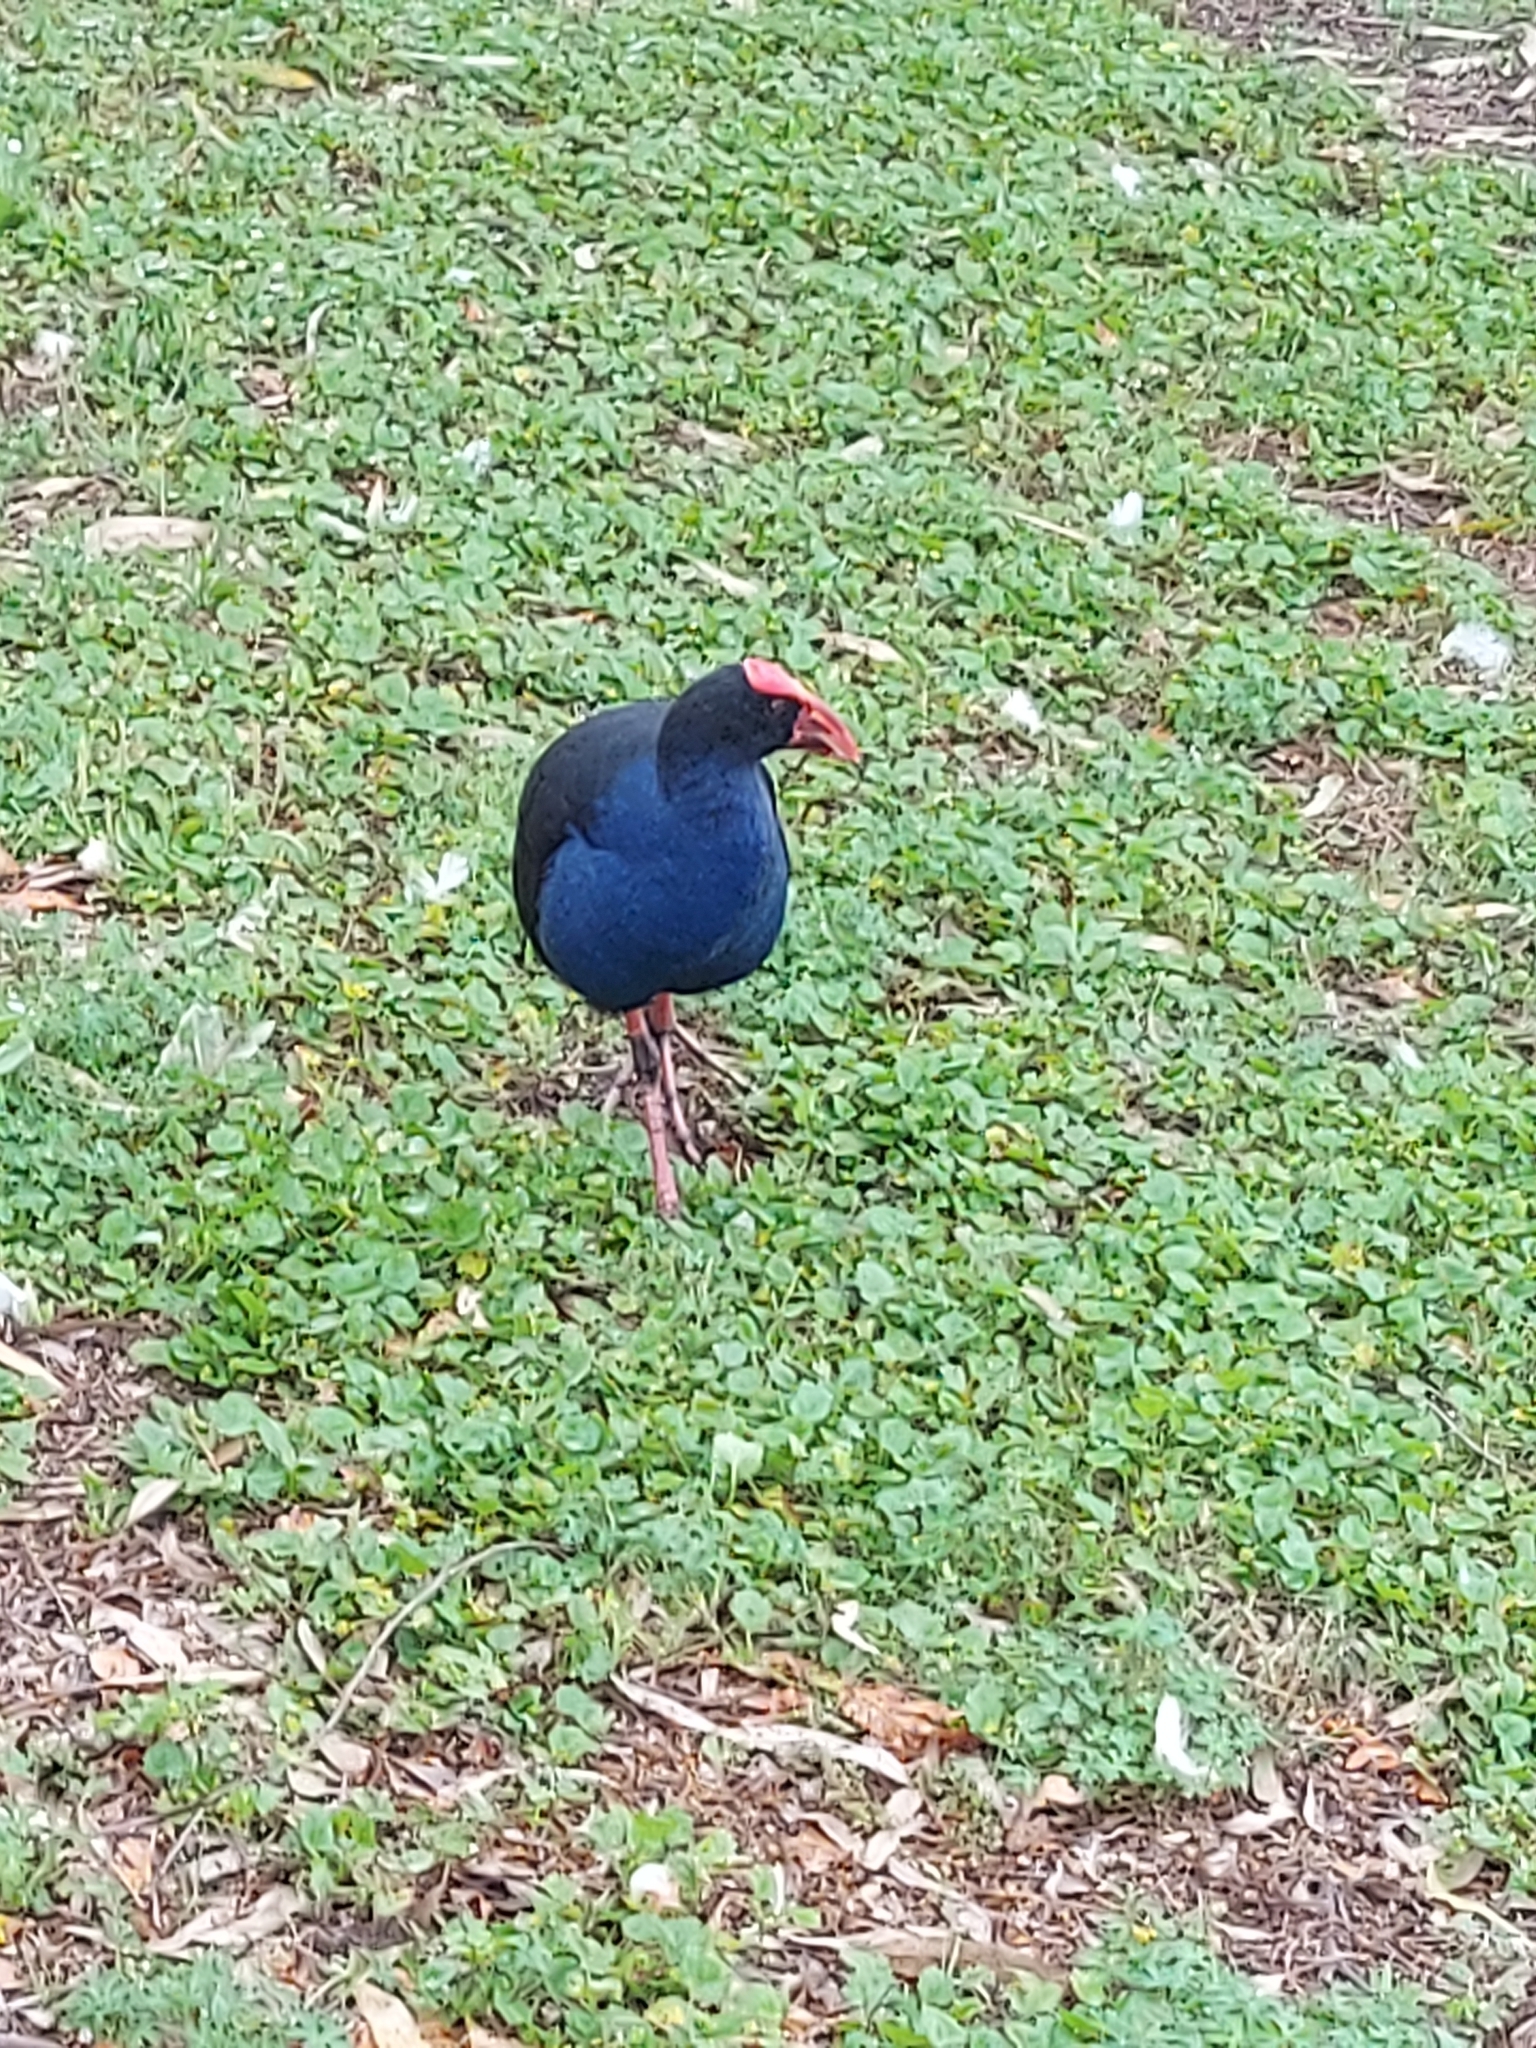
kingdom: Animalia
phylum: Chordata
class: Aves
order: Gruiformes
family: Rallidae
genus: Porphyrio
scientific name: Porphyrio melanotus
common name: Australasian swamphen
